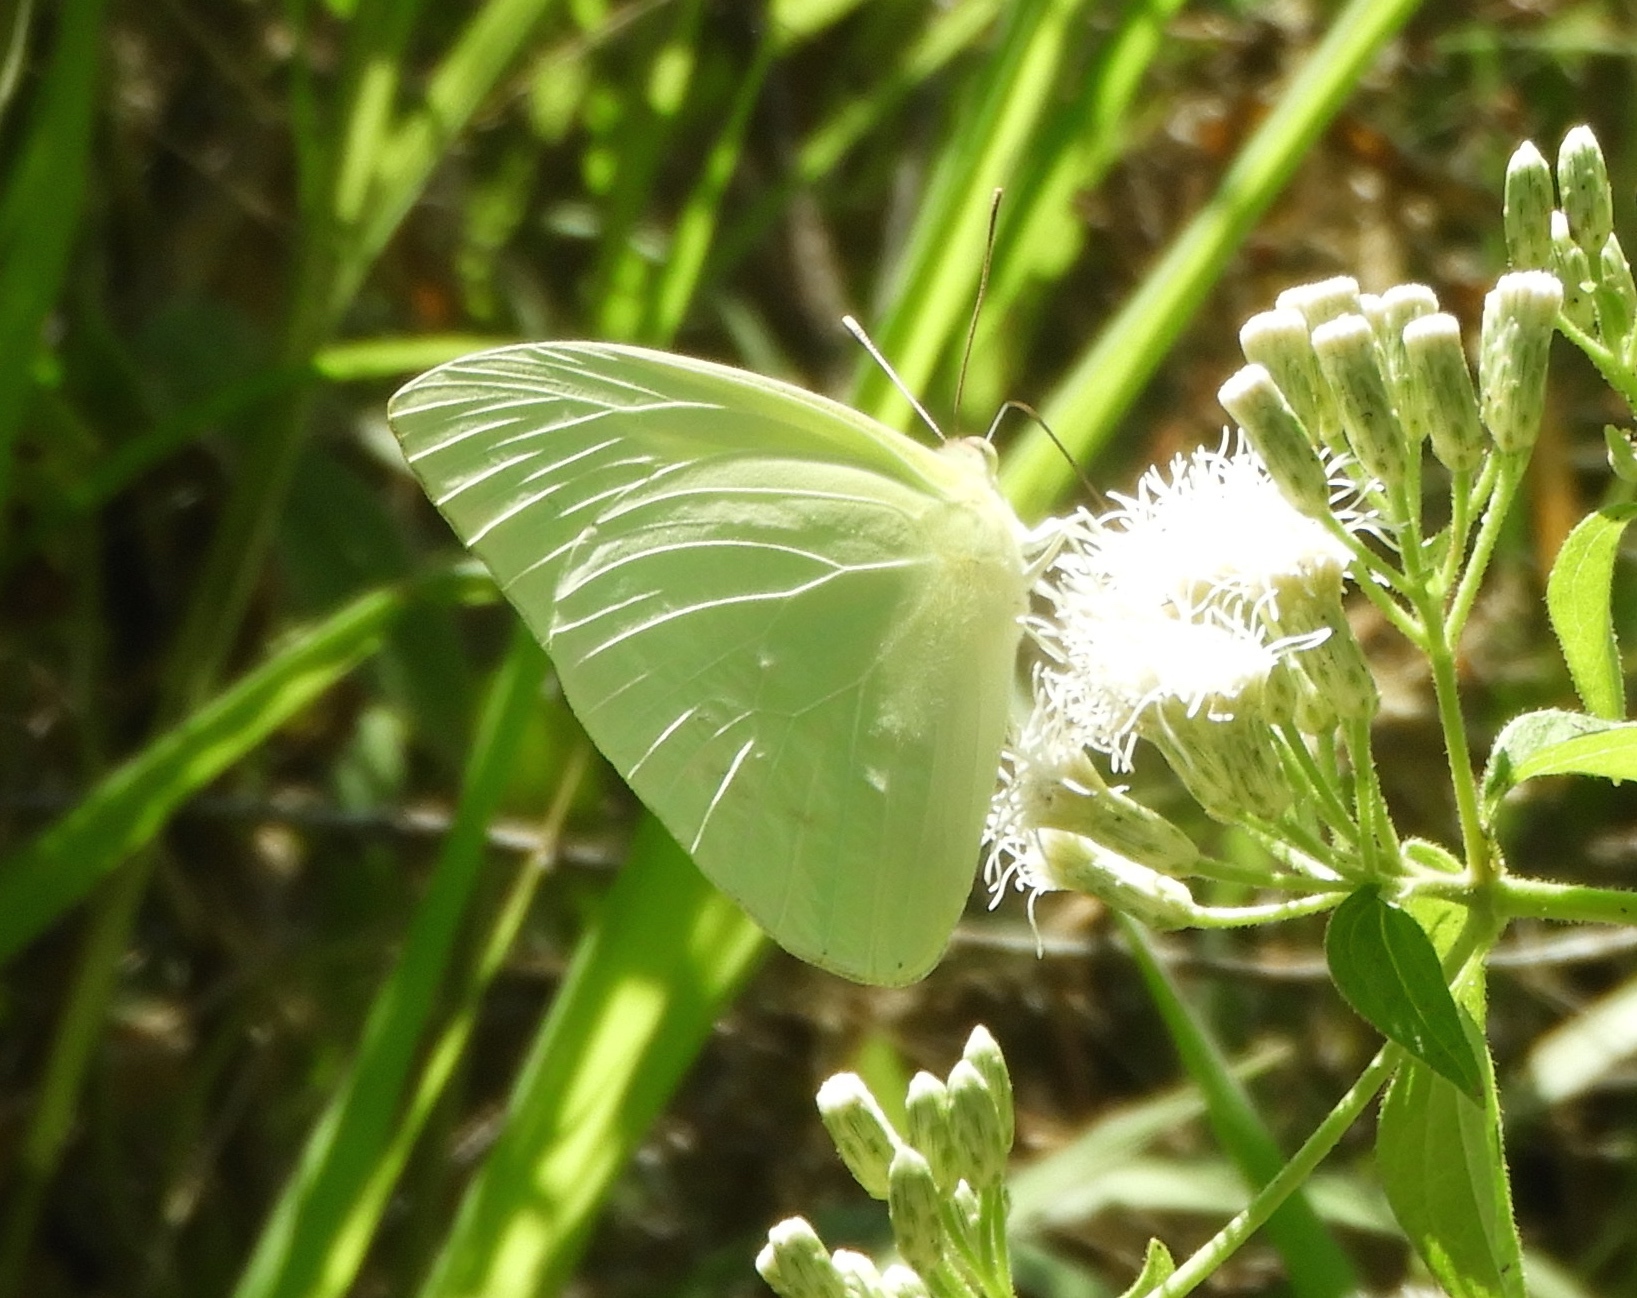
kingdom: Animalia
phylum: Arthropoda
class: Insecta
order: Lepidoptera
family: Pieridae
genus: Aphrissa
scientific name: Aphrissa statira
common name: Statira sulphur
